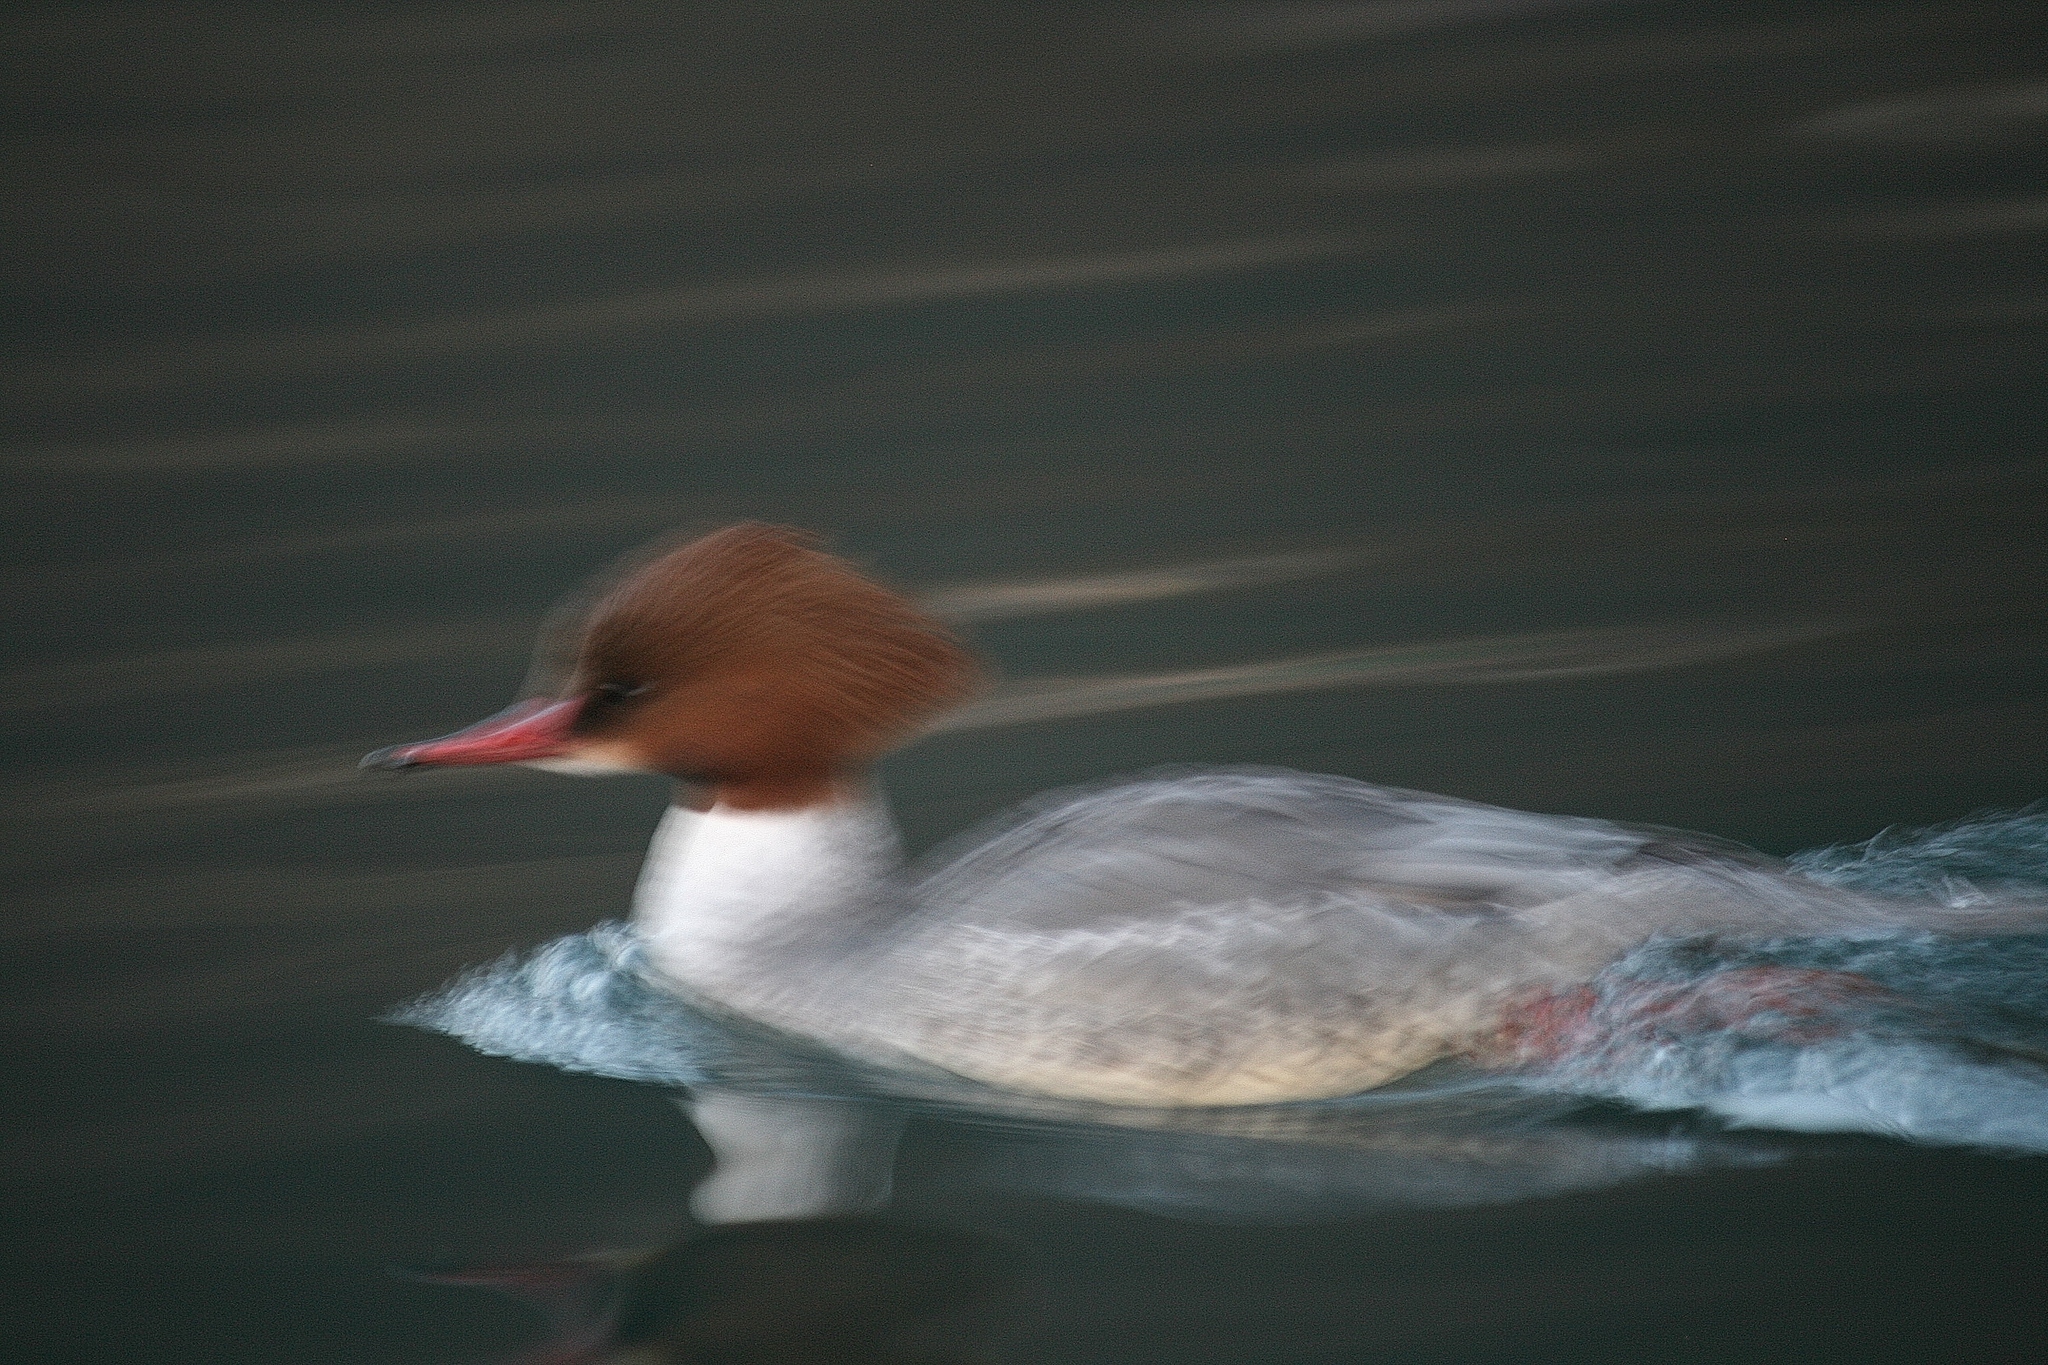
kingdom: Animalia
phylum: Chordata
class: Aves
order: Anseriformes
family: Anatidae
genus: Mergus
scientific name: Mergus merganser
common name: Common merganser
